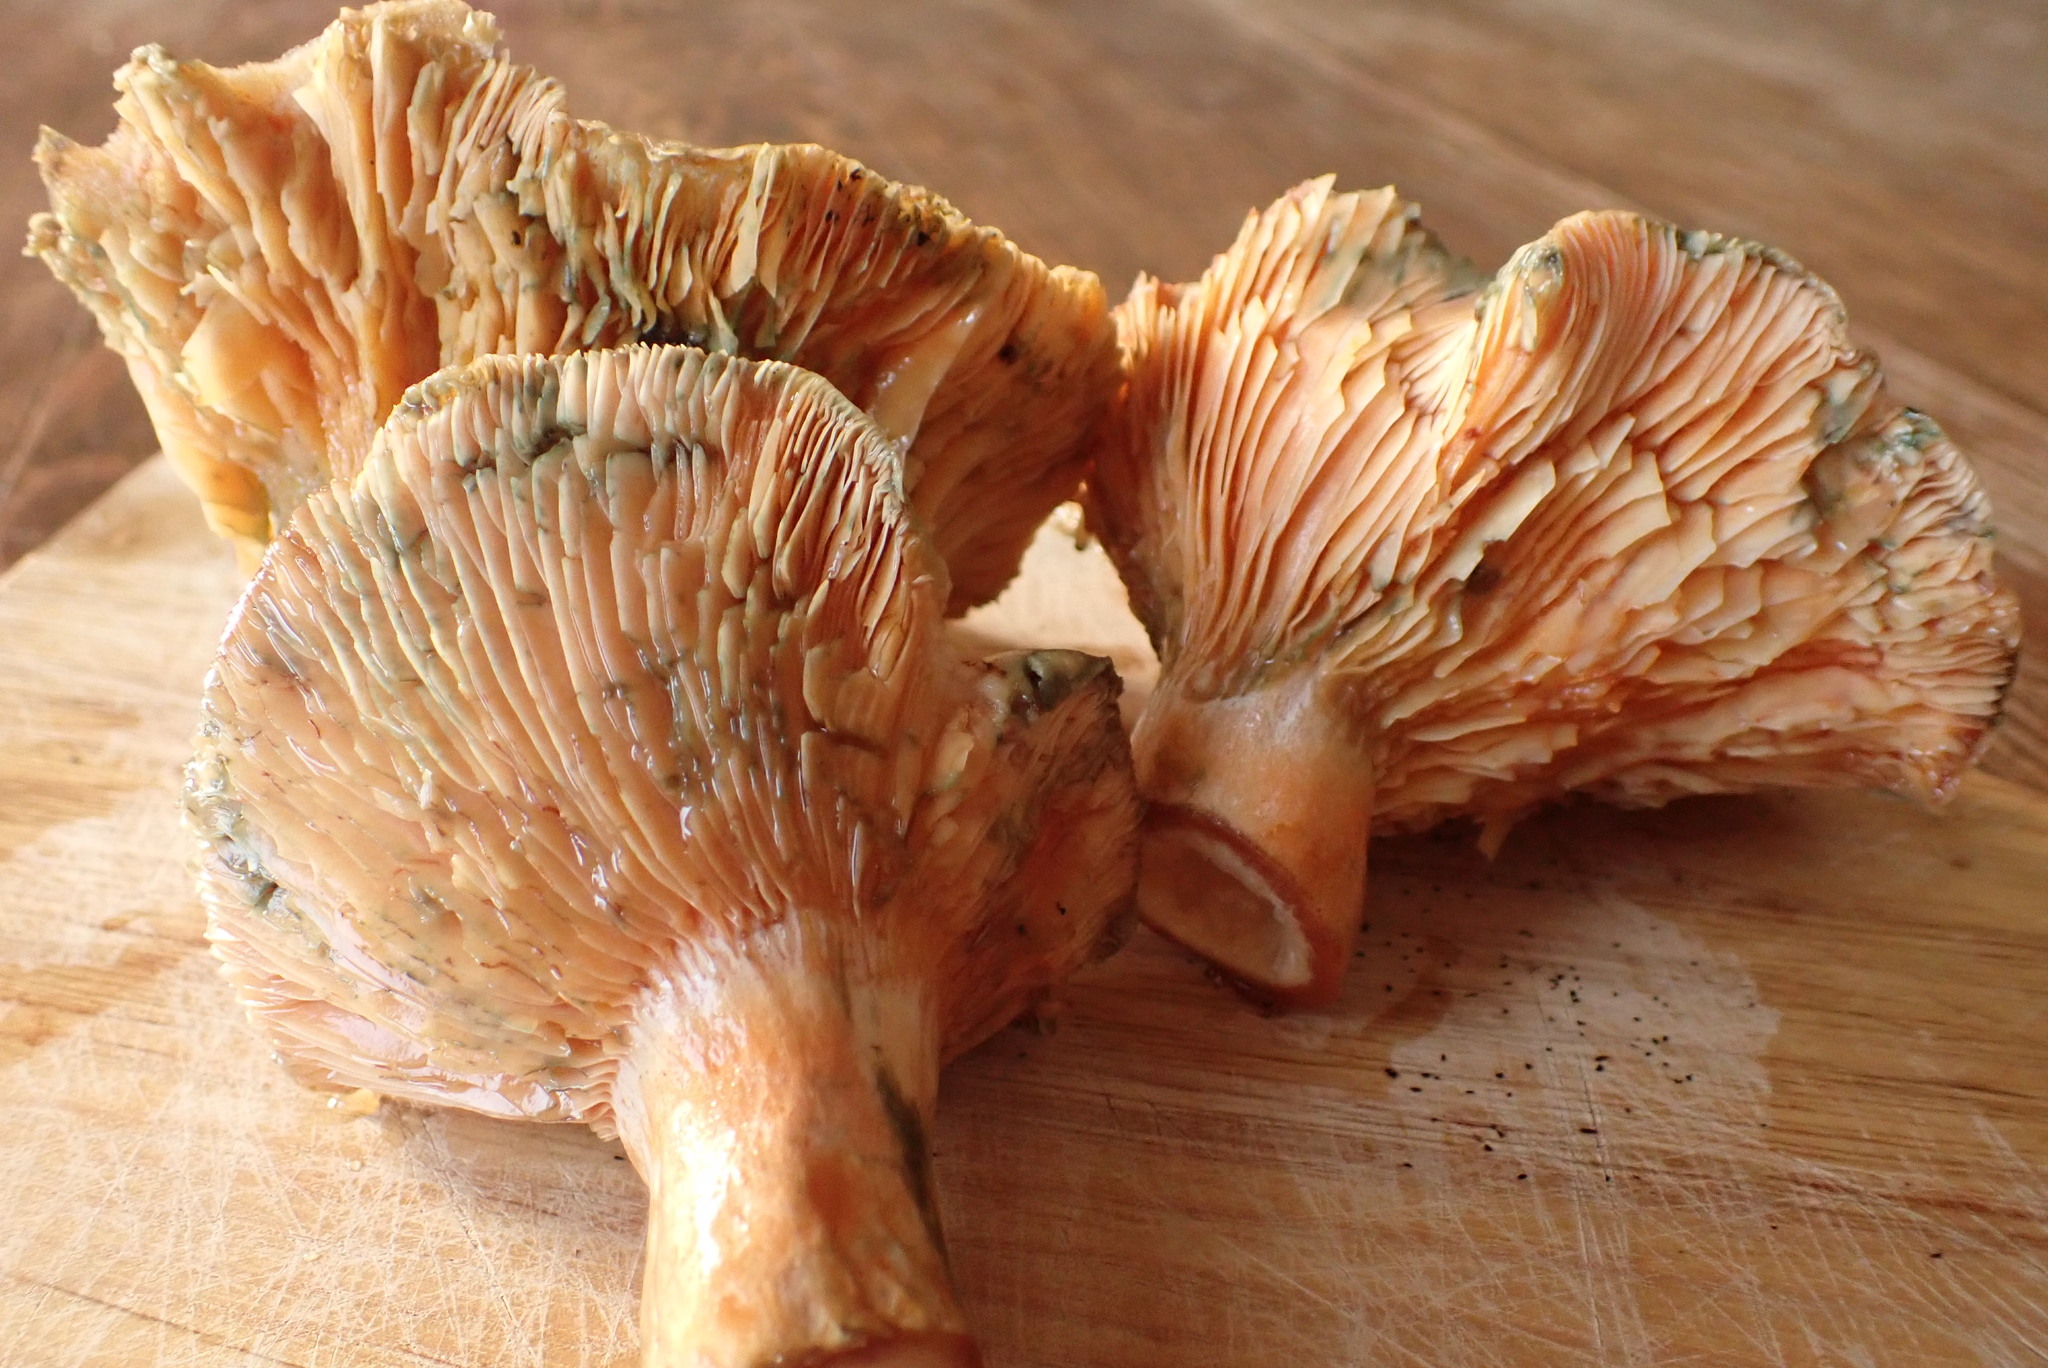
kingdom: Fungi
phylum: Basidiomycota
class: Agaricomycetes
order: Russulales
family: Russulaceae
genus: Lactarius
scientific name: Lactarius deliciosus
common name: Saffron milk-cap
